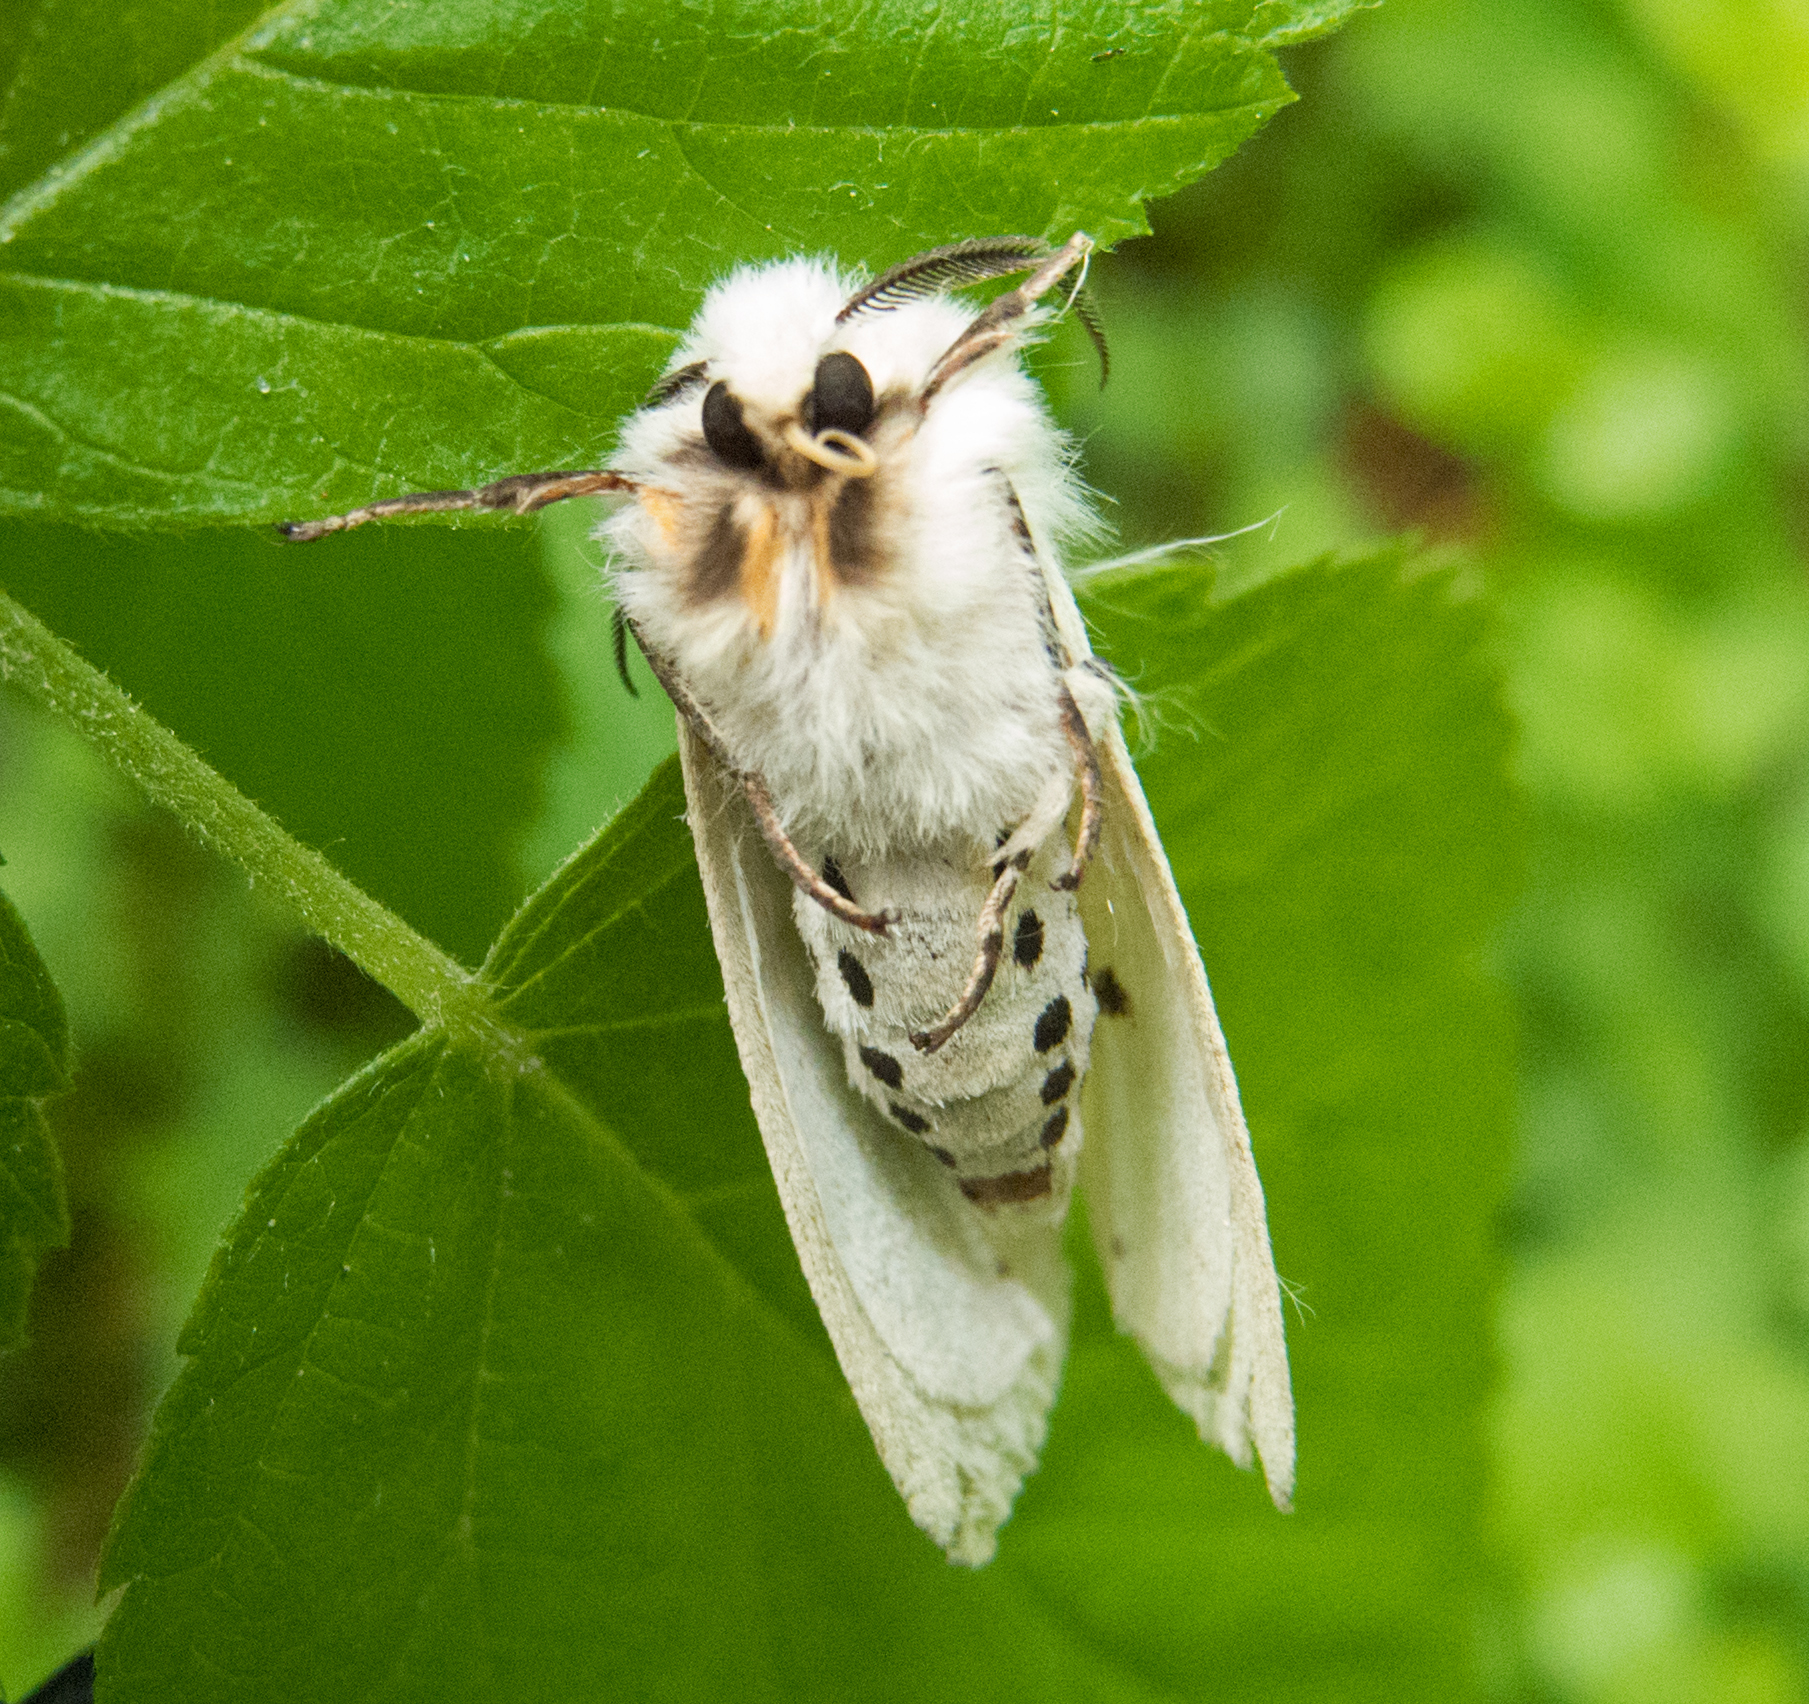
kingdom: Animalia
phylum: Arthropoda
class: Insecta
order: Lepidoptera
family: Erebidae
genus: Spilosoma
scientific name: Spilosoma lubricipeda
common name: White ermine
